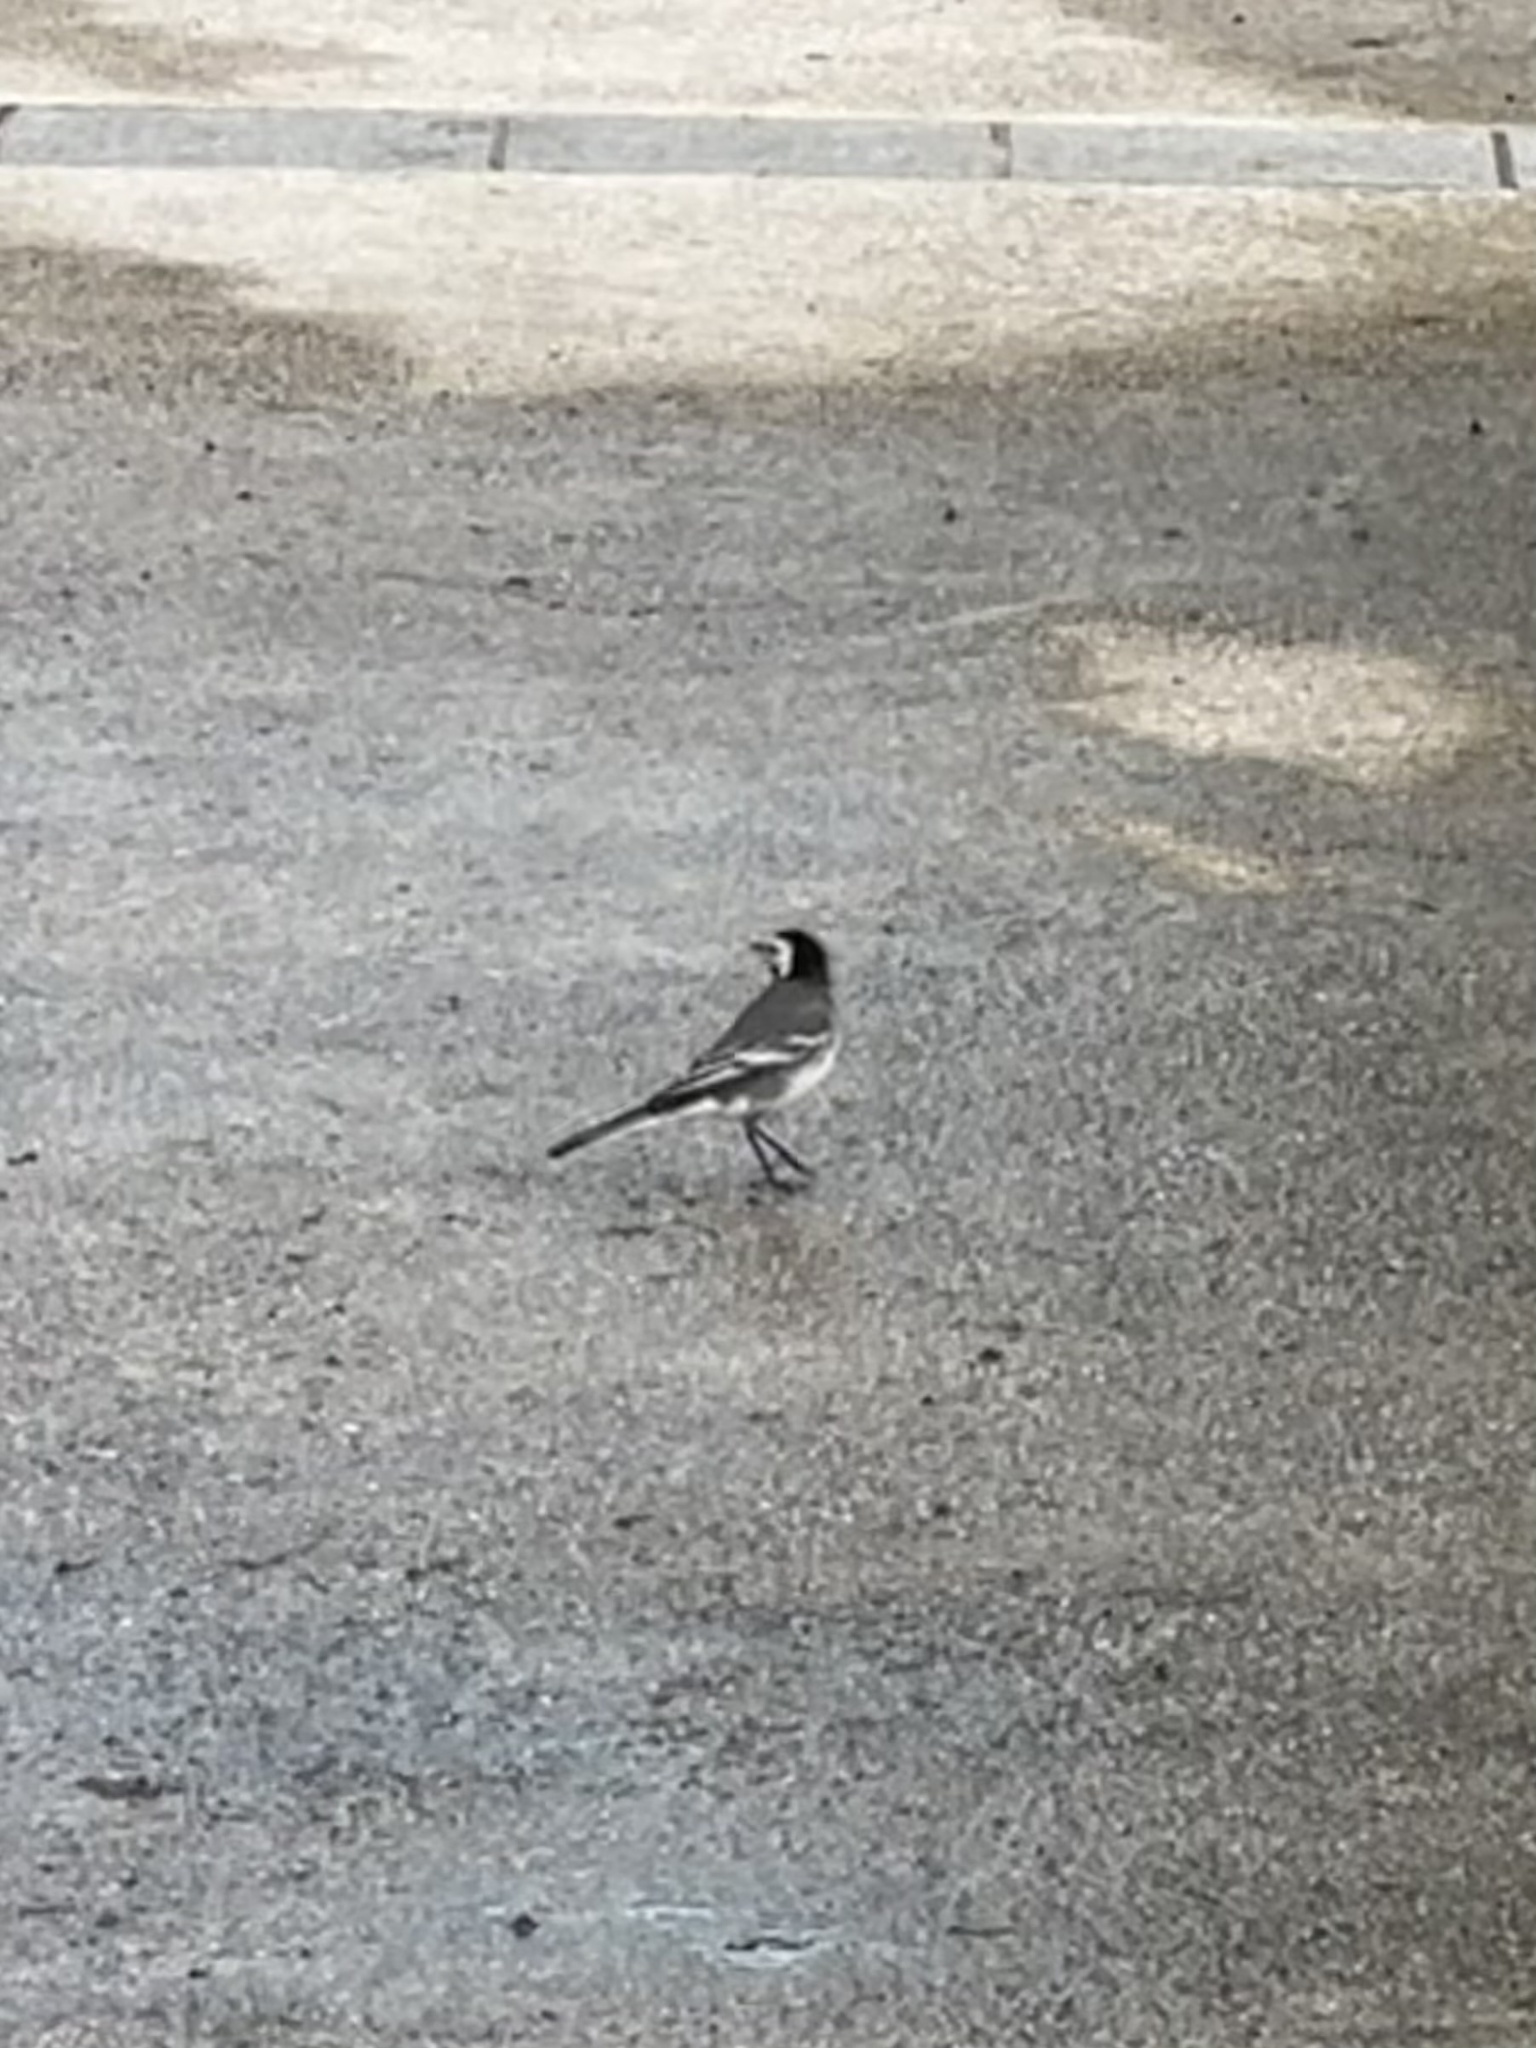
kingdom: Animalia
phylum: Chordata
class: Aves
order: Passeriformes
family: Motacillidae
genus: Motacilla
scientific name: Motacilla alba
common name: White wagtail
